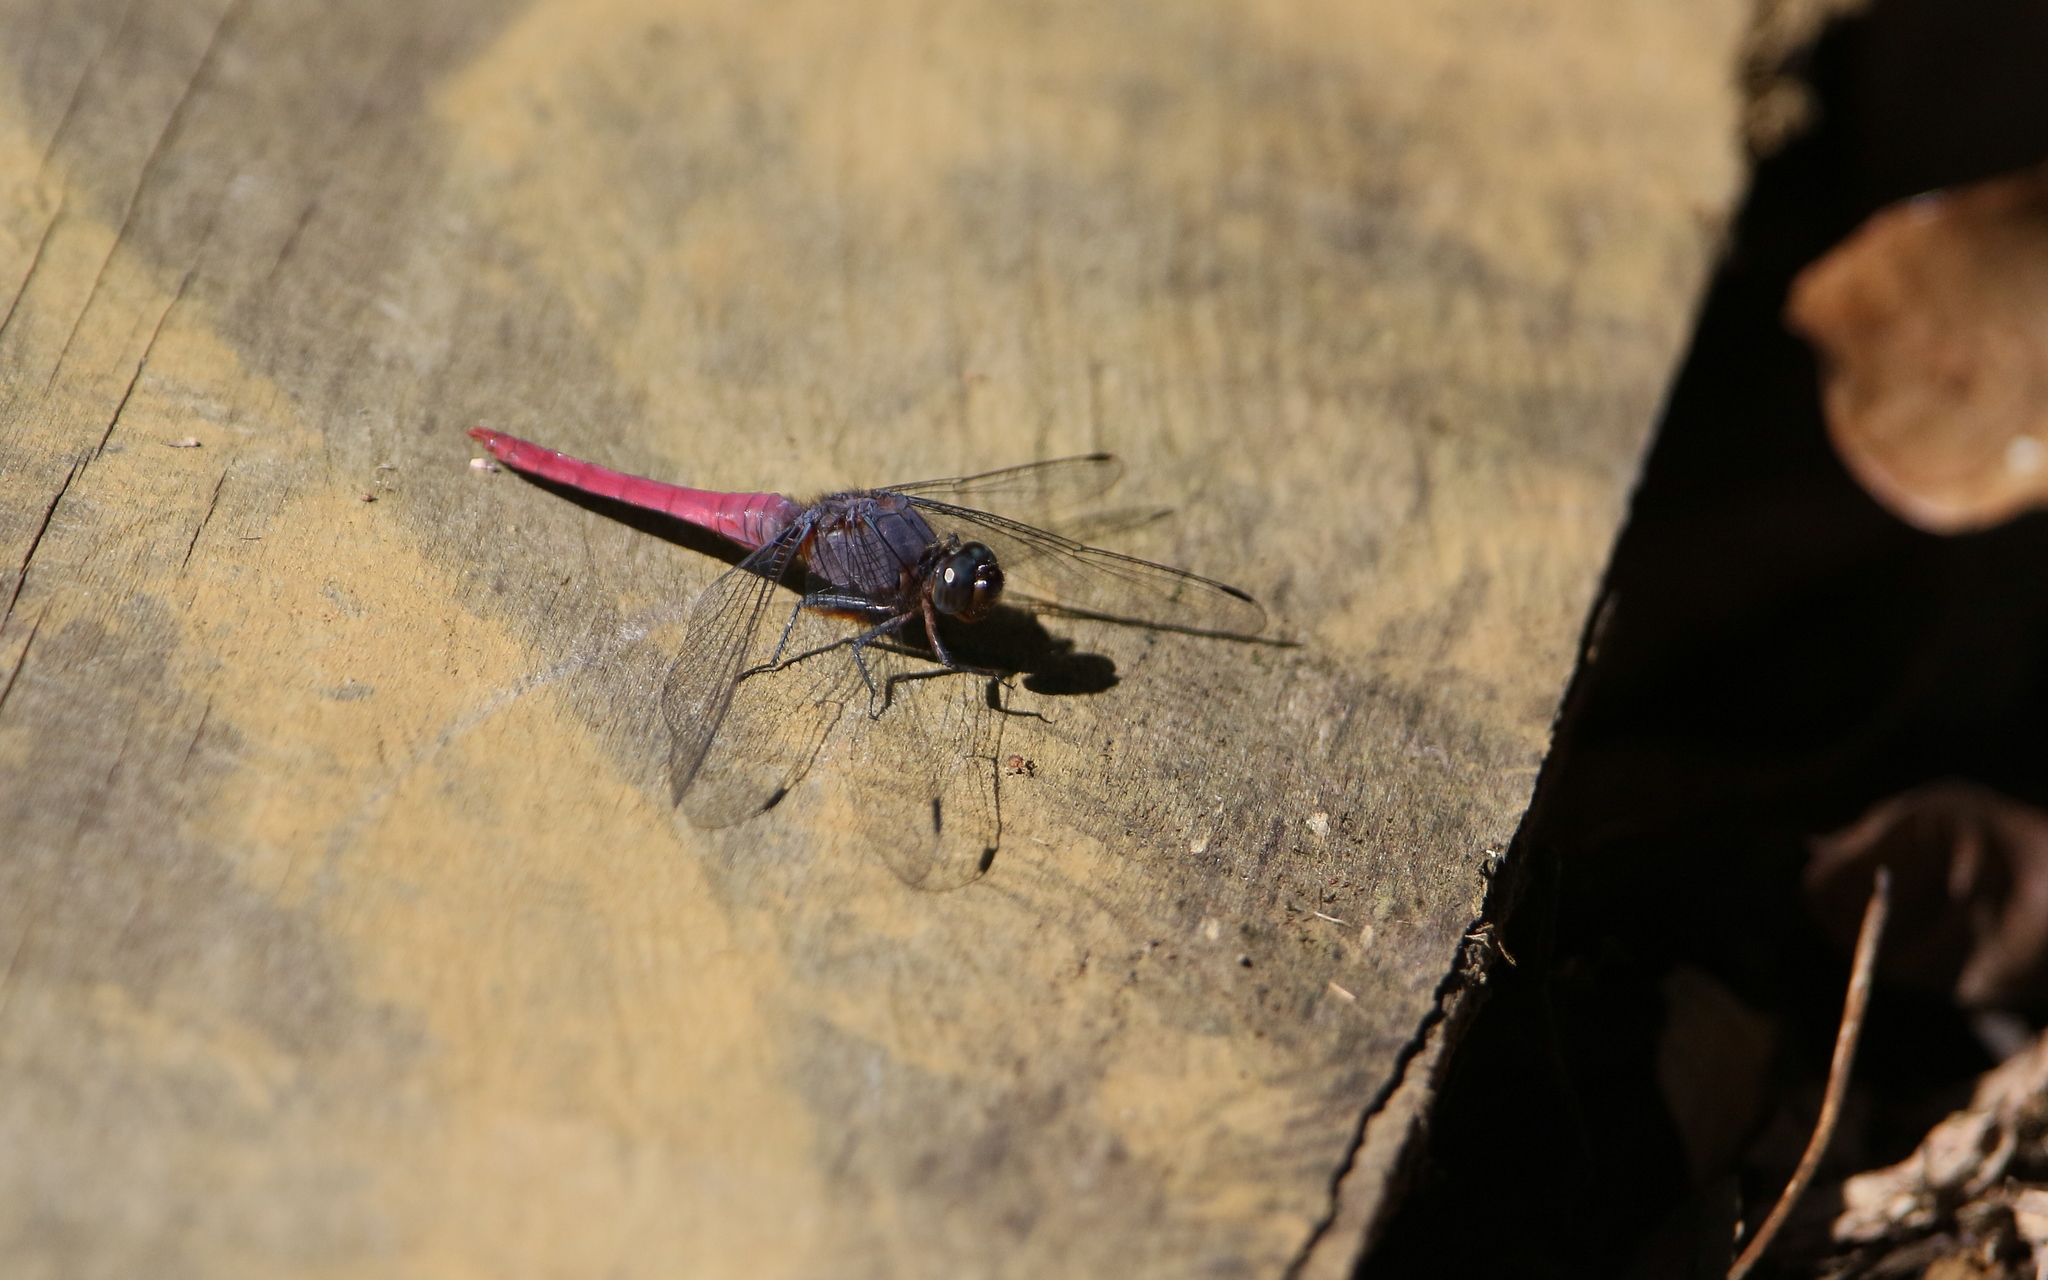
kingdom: Animalia
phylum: Arthropoda
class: Insecta
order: Odonata
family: Libellulidae
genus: Orthetrum
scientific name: Orthetrum pruinosum
